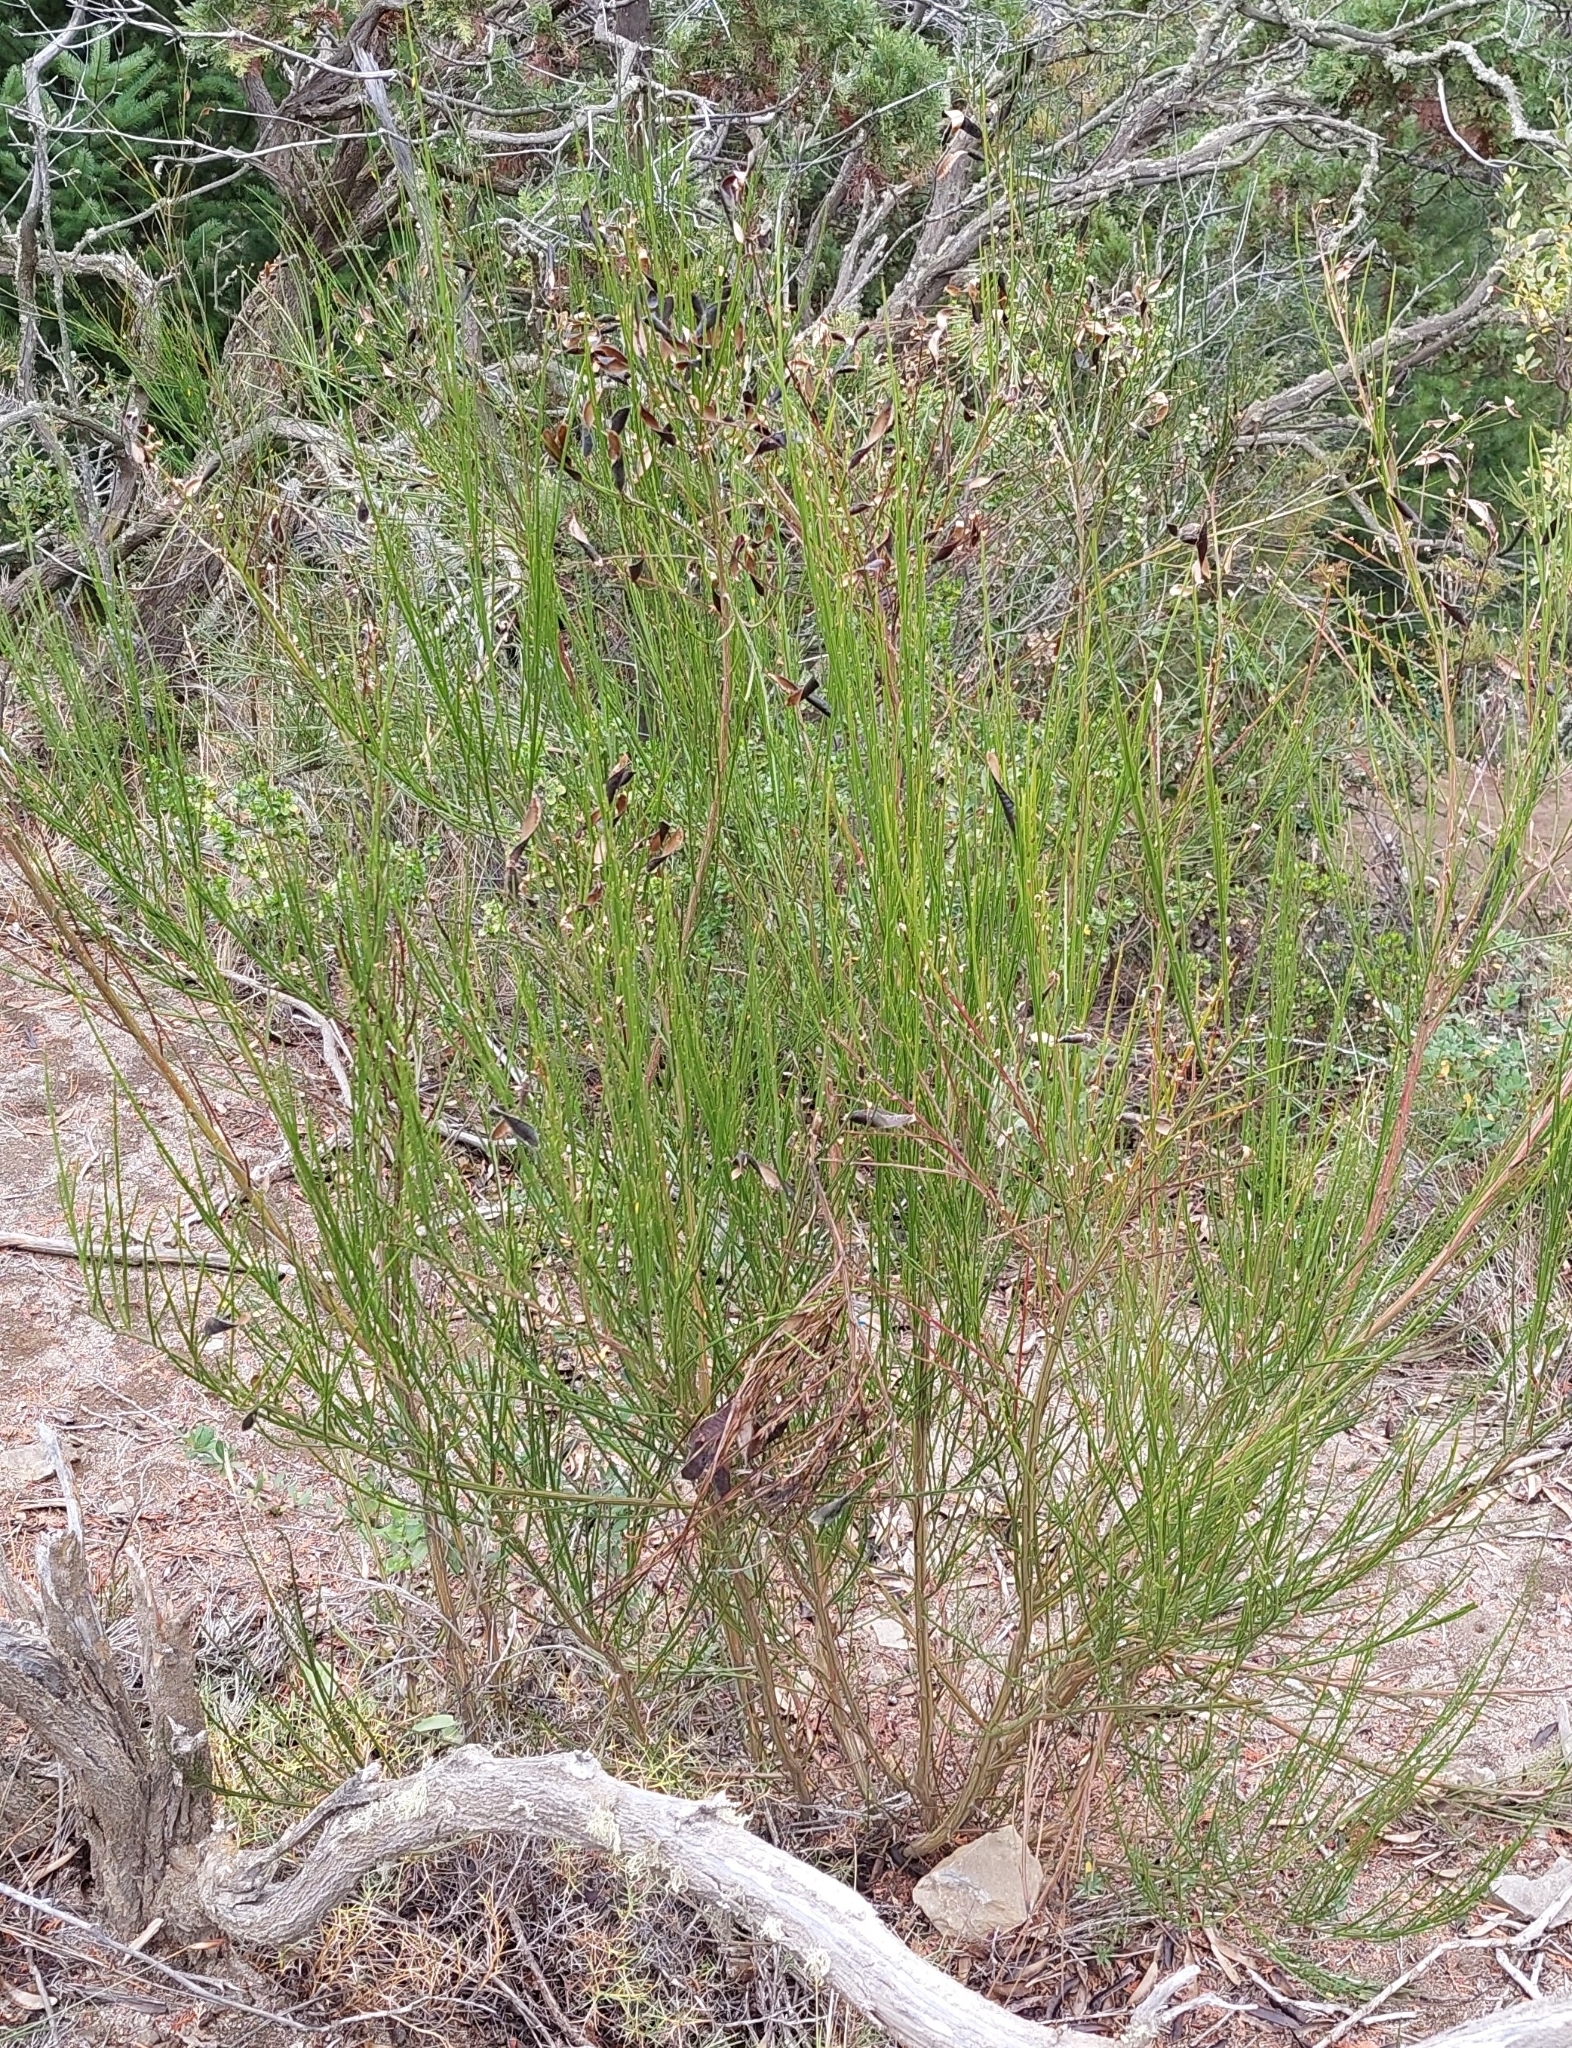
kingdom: Plantae
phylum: Tracheophyta
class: Magnoliopsida
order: Fabales
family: Fabaceae
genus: Cytisus
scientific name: Cytisus scoparius
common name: Scotch broom
